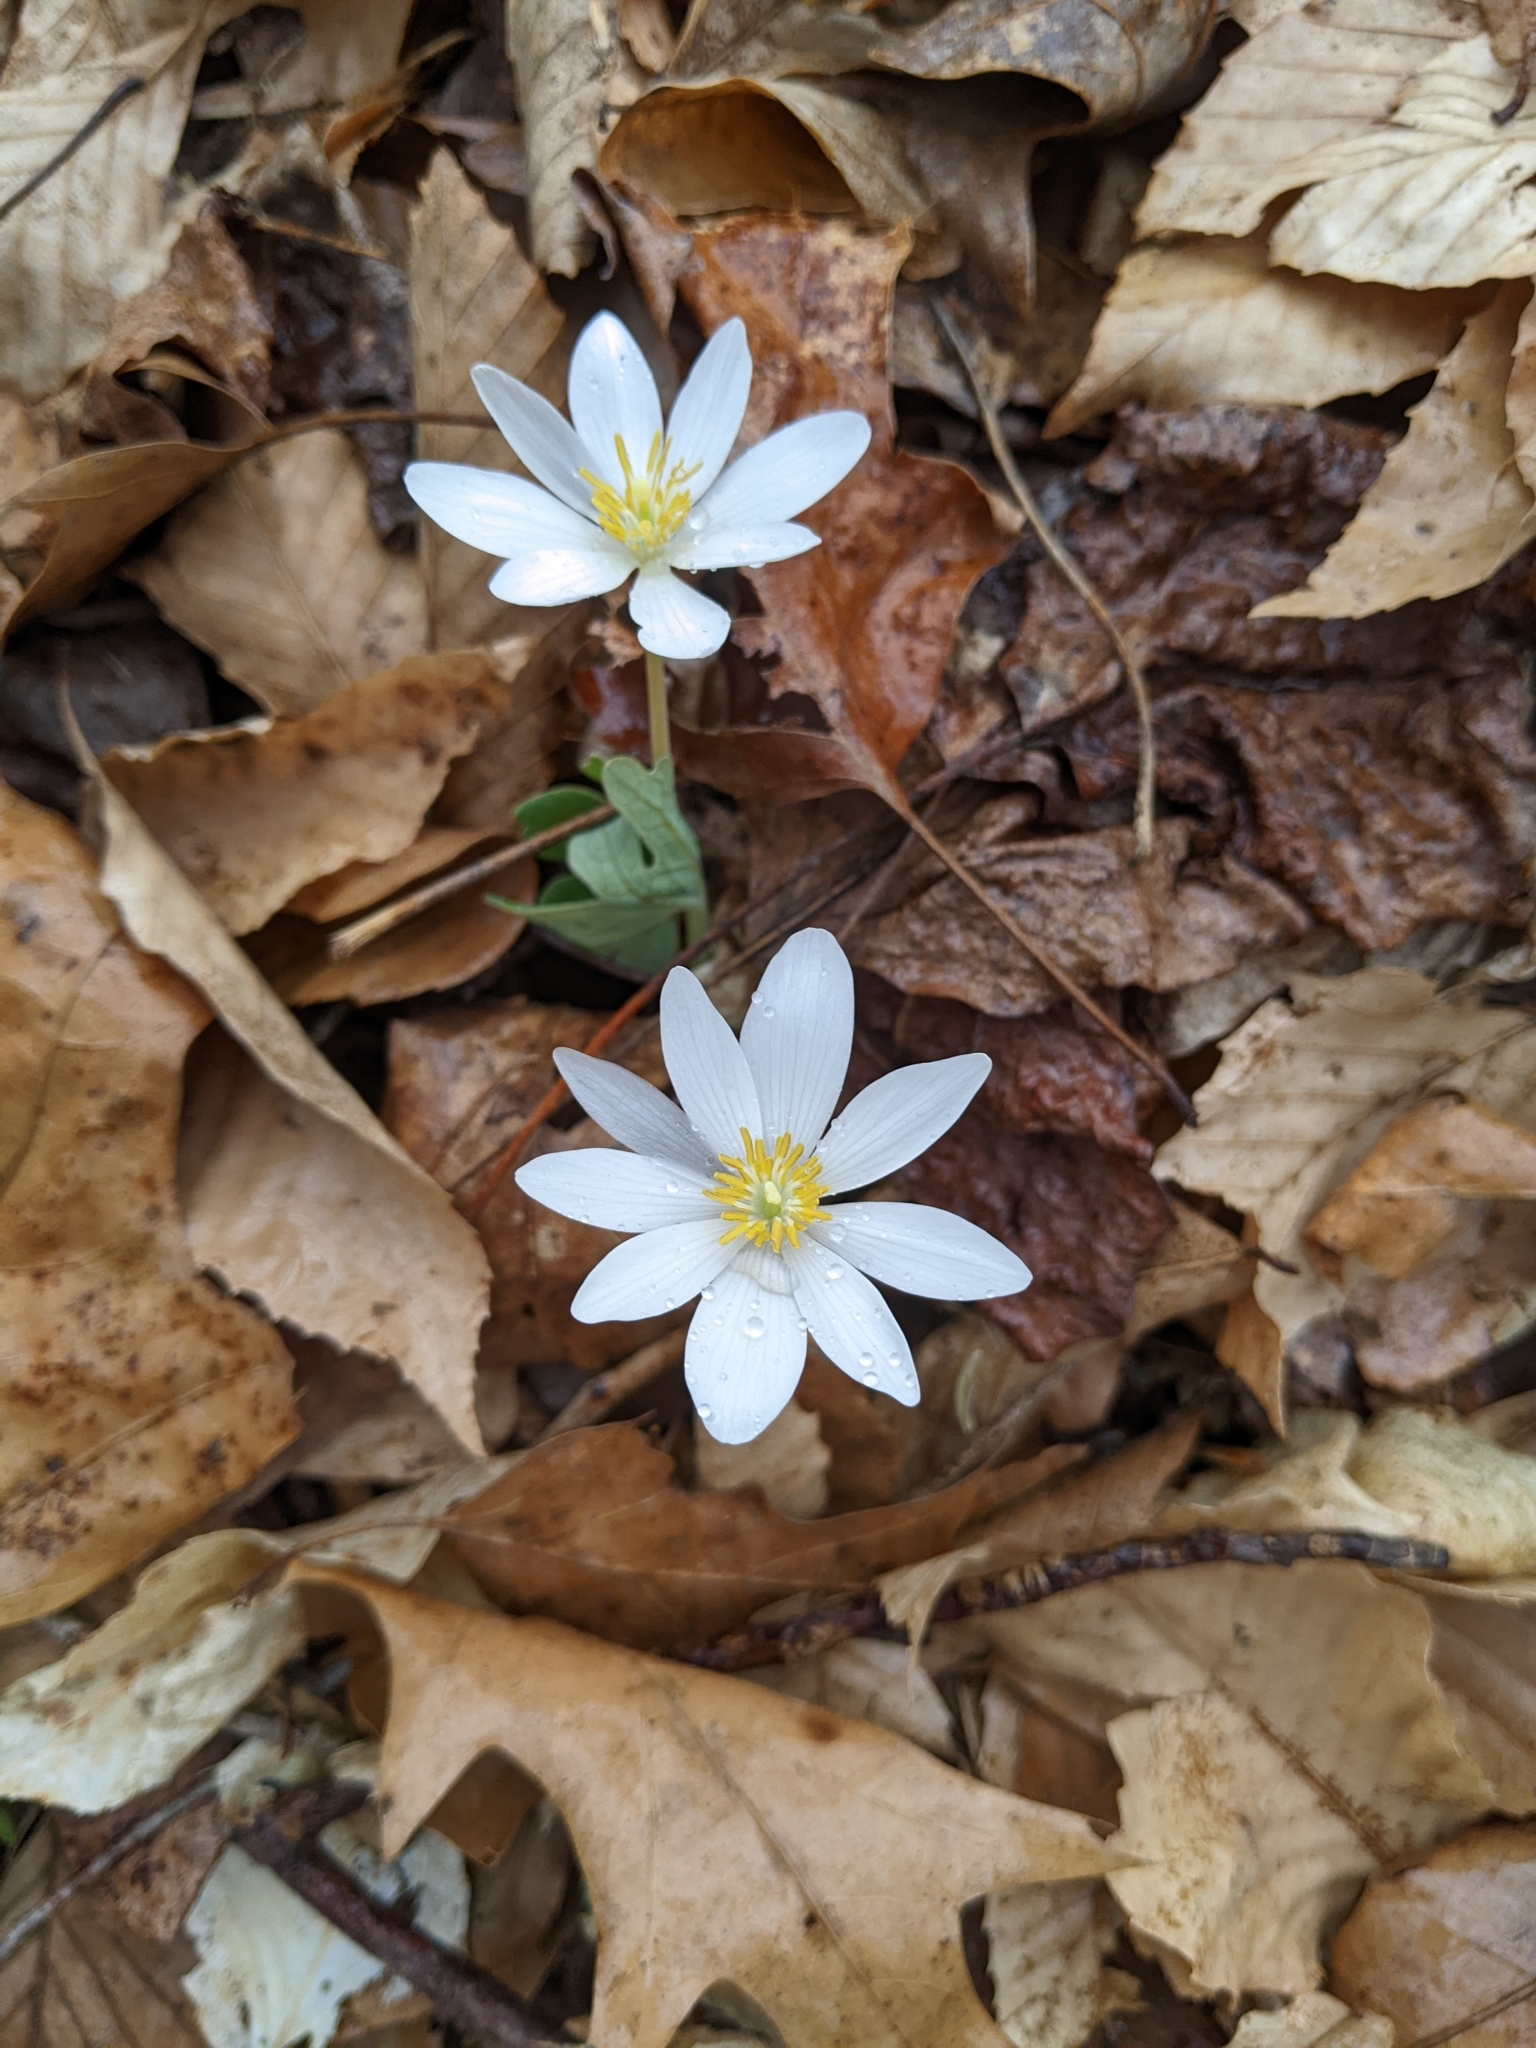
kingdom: Plantae
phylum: Tracheophyta
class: Magnoliopsida
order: Ranunculales
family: Papaveraceae
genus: Sanguinaria
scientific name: Sanguinaria canadensis
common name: Bloodroot
